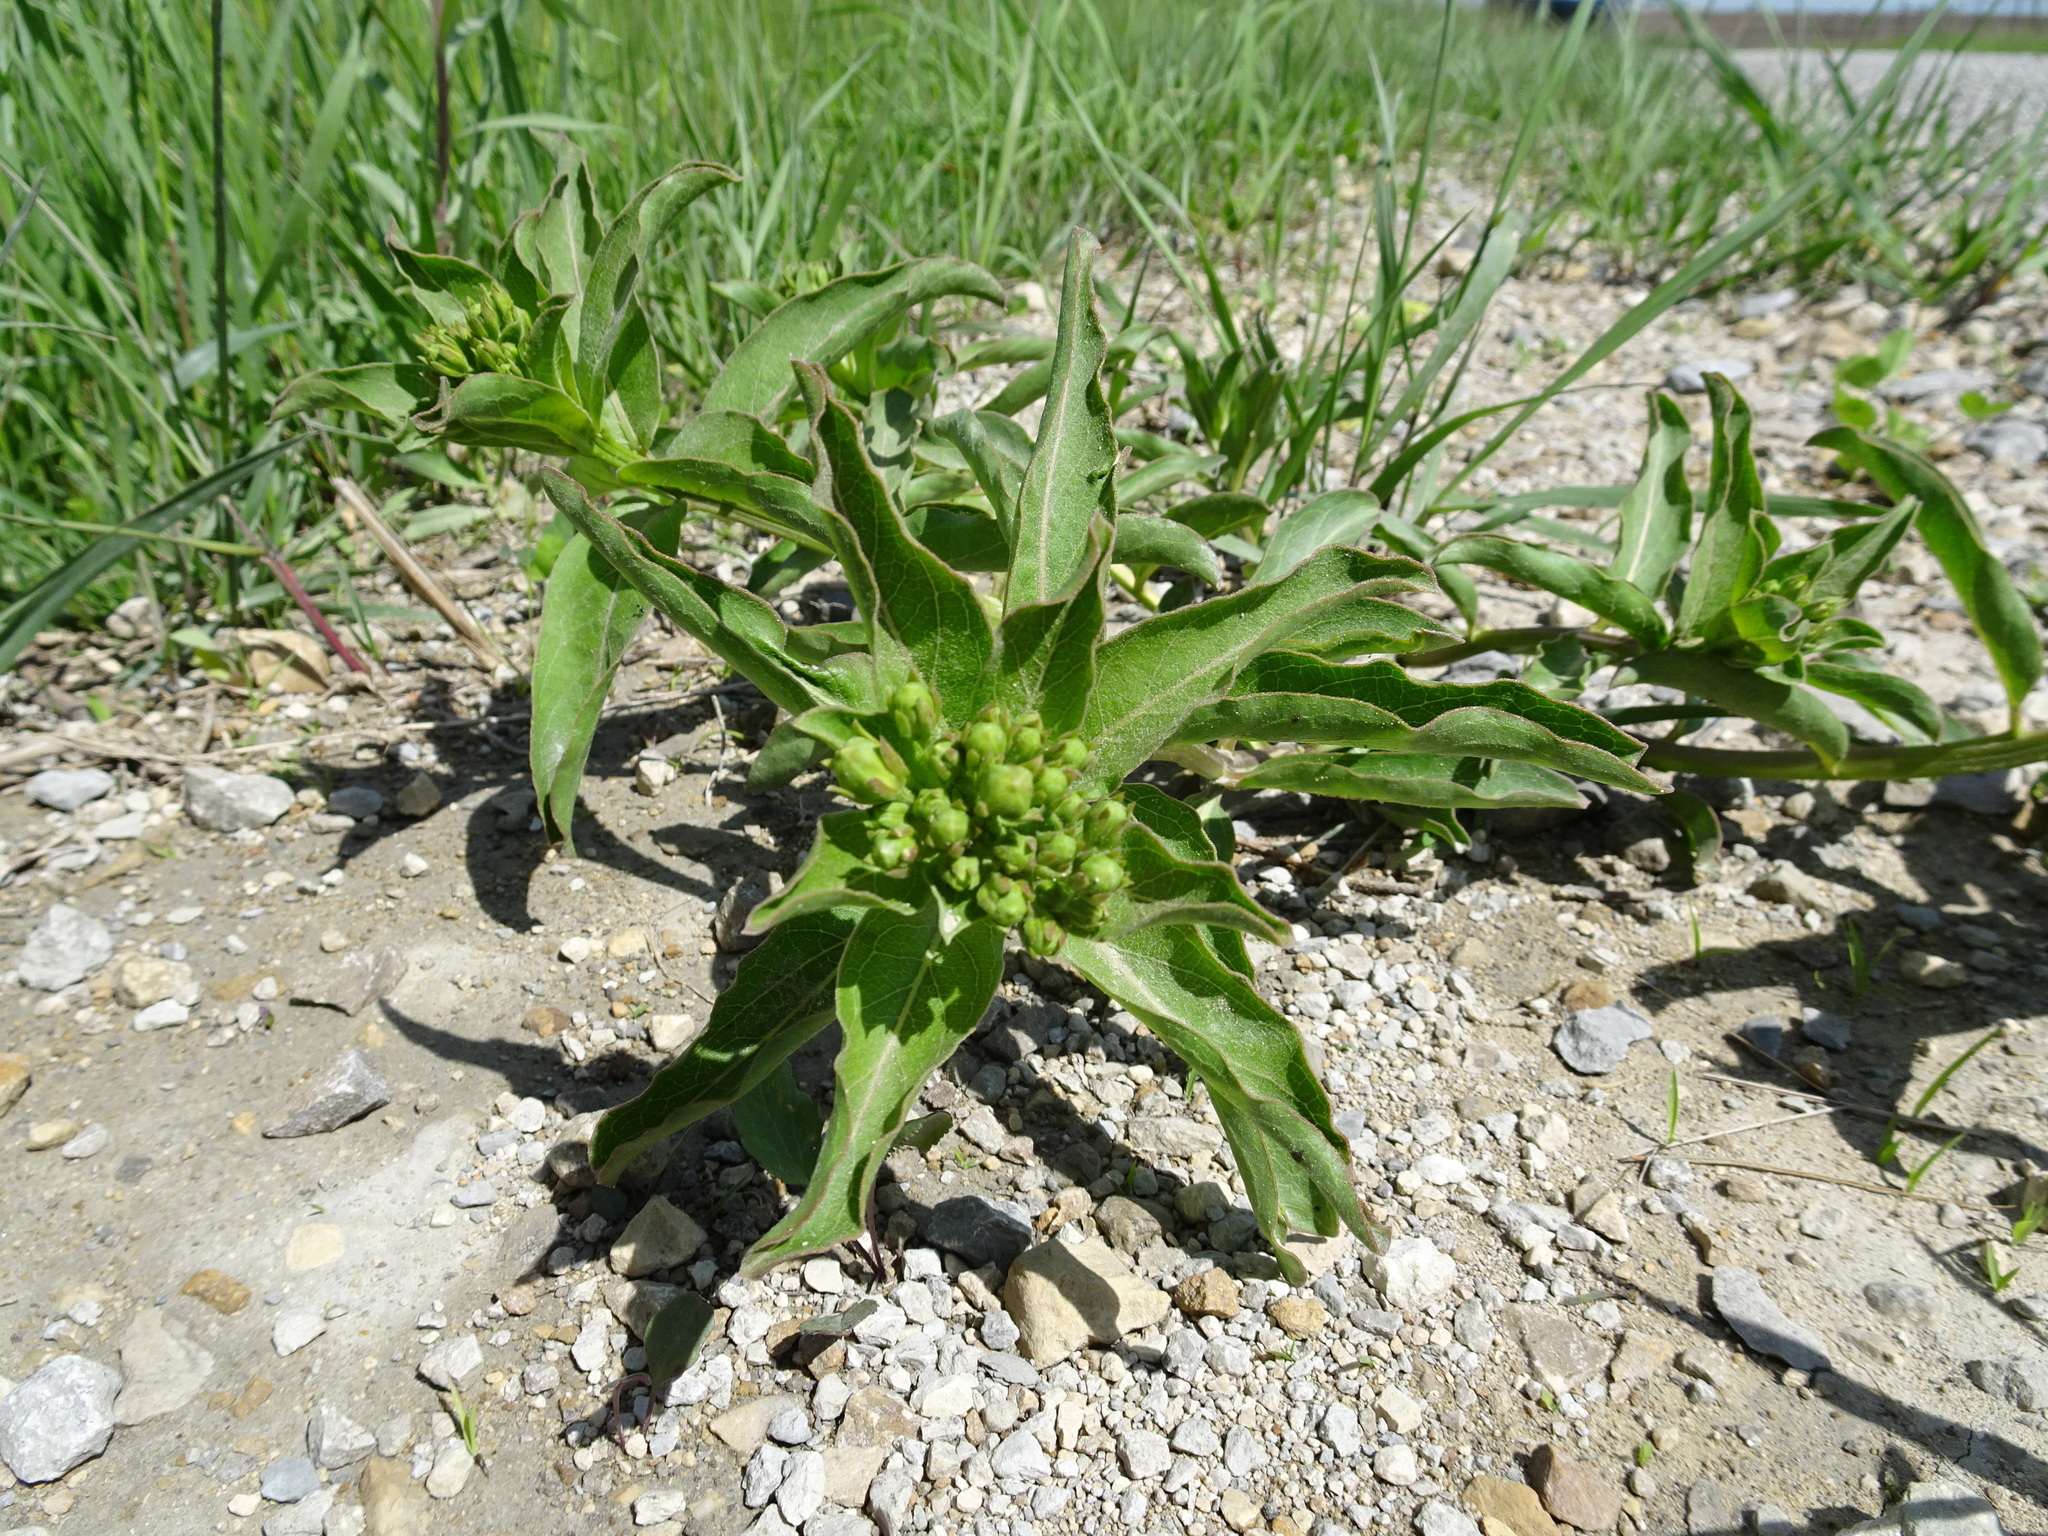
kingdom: Plantae
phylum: Tracheophyta
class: Magnoliopsida
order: Gentianales
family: Apocynaceae
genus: Asclepias
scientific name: Asclepias viridis
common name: Antelope-horns
